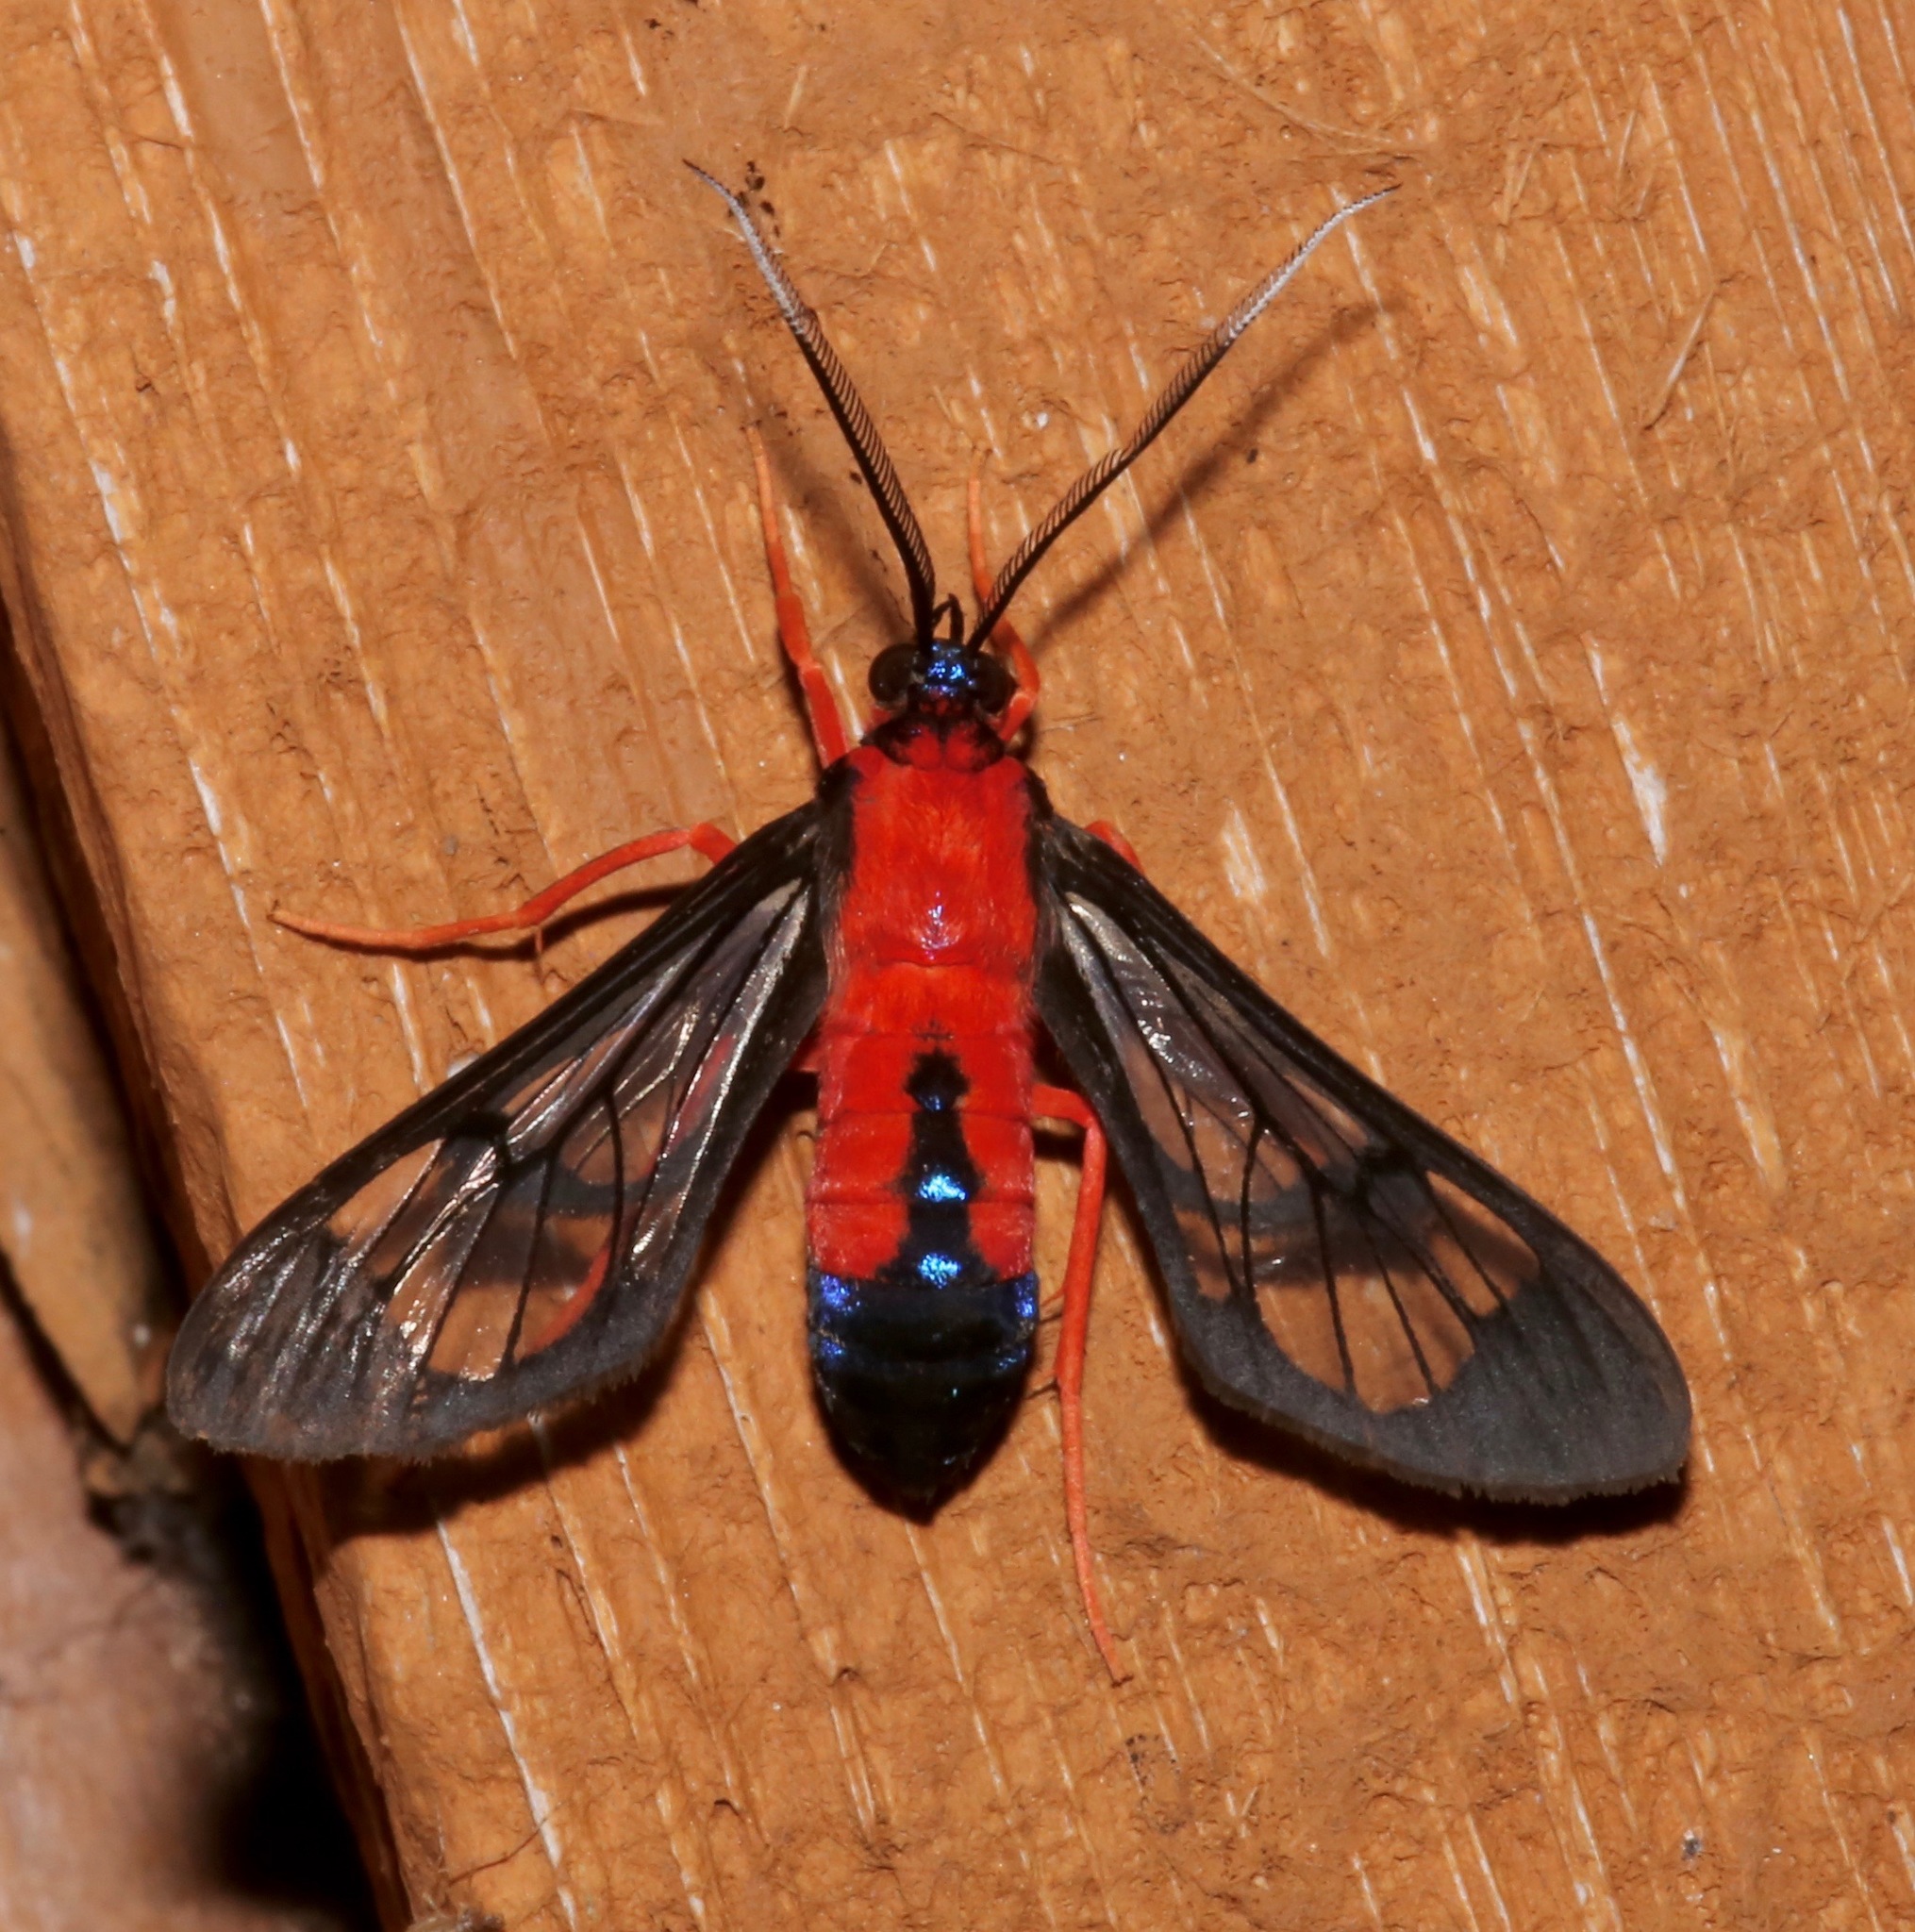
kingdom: Animalia
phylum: Arthropoda
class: Insecta
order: Lepidoptera
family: Erebidae
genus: Cosmosoma
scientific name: Cosmosoma myrodora
